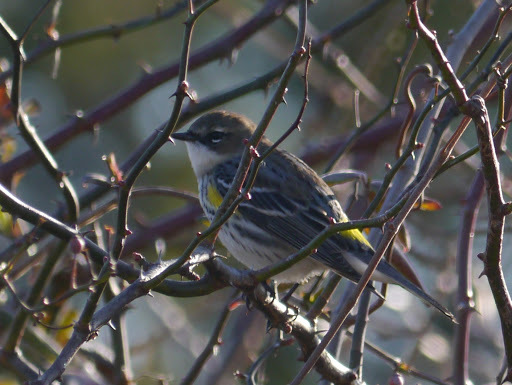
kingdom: Animalia
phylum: Chordata
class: Aves
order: Passeriformes
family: Parulidae
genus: Setophaga
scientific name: Setophaga coronata
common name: Myrtle warbler
